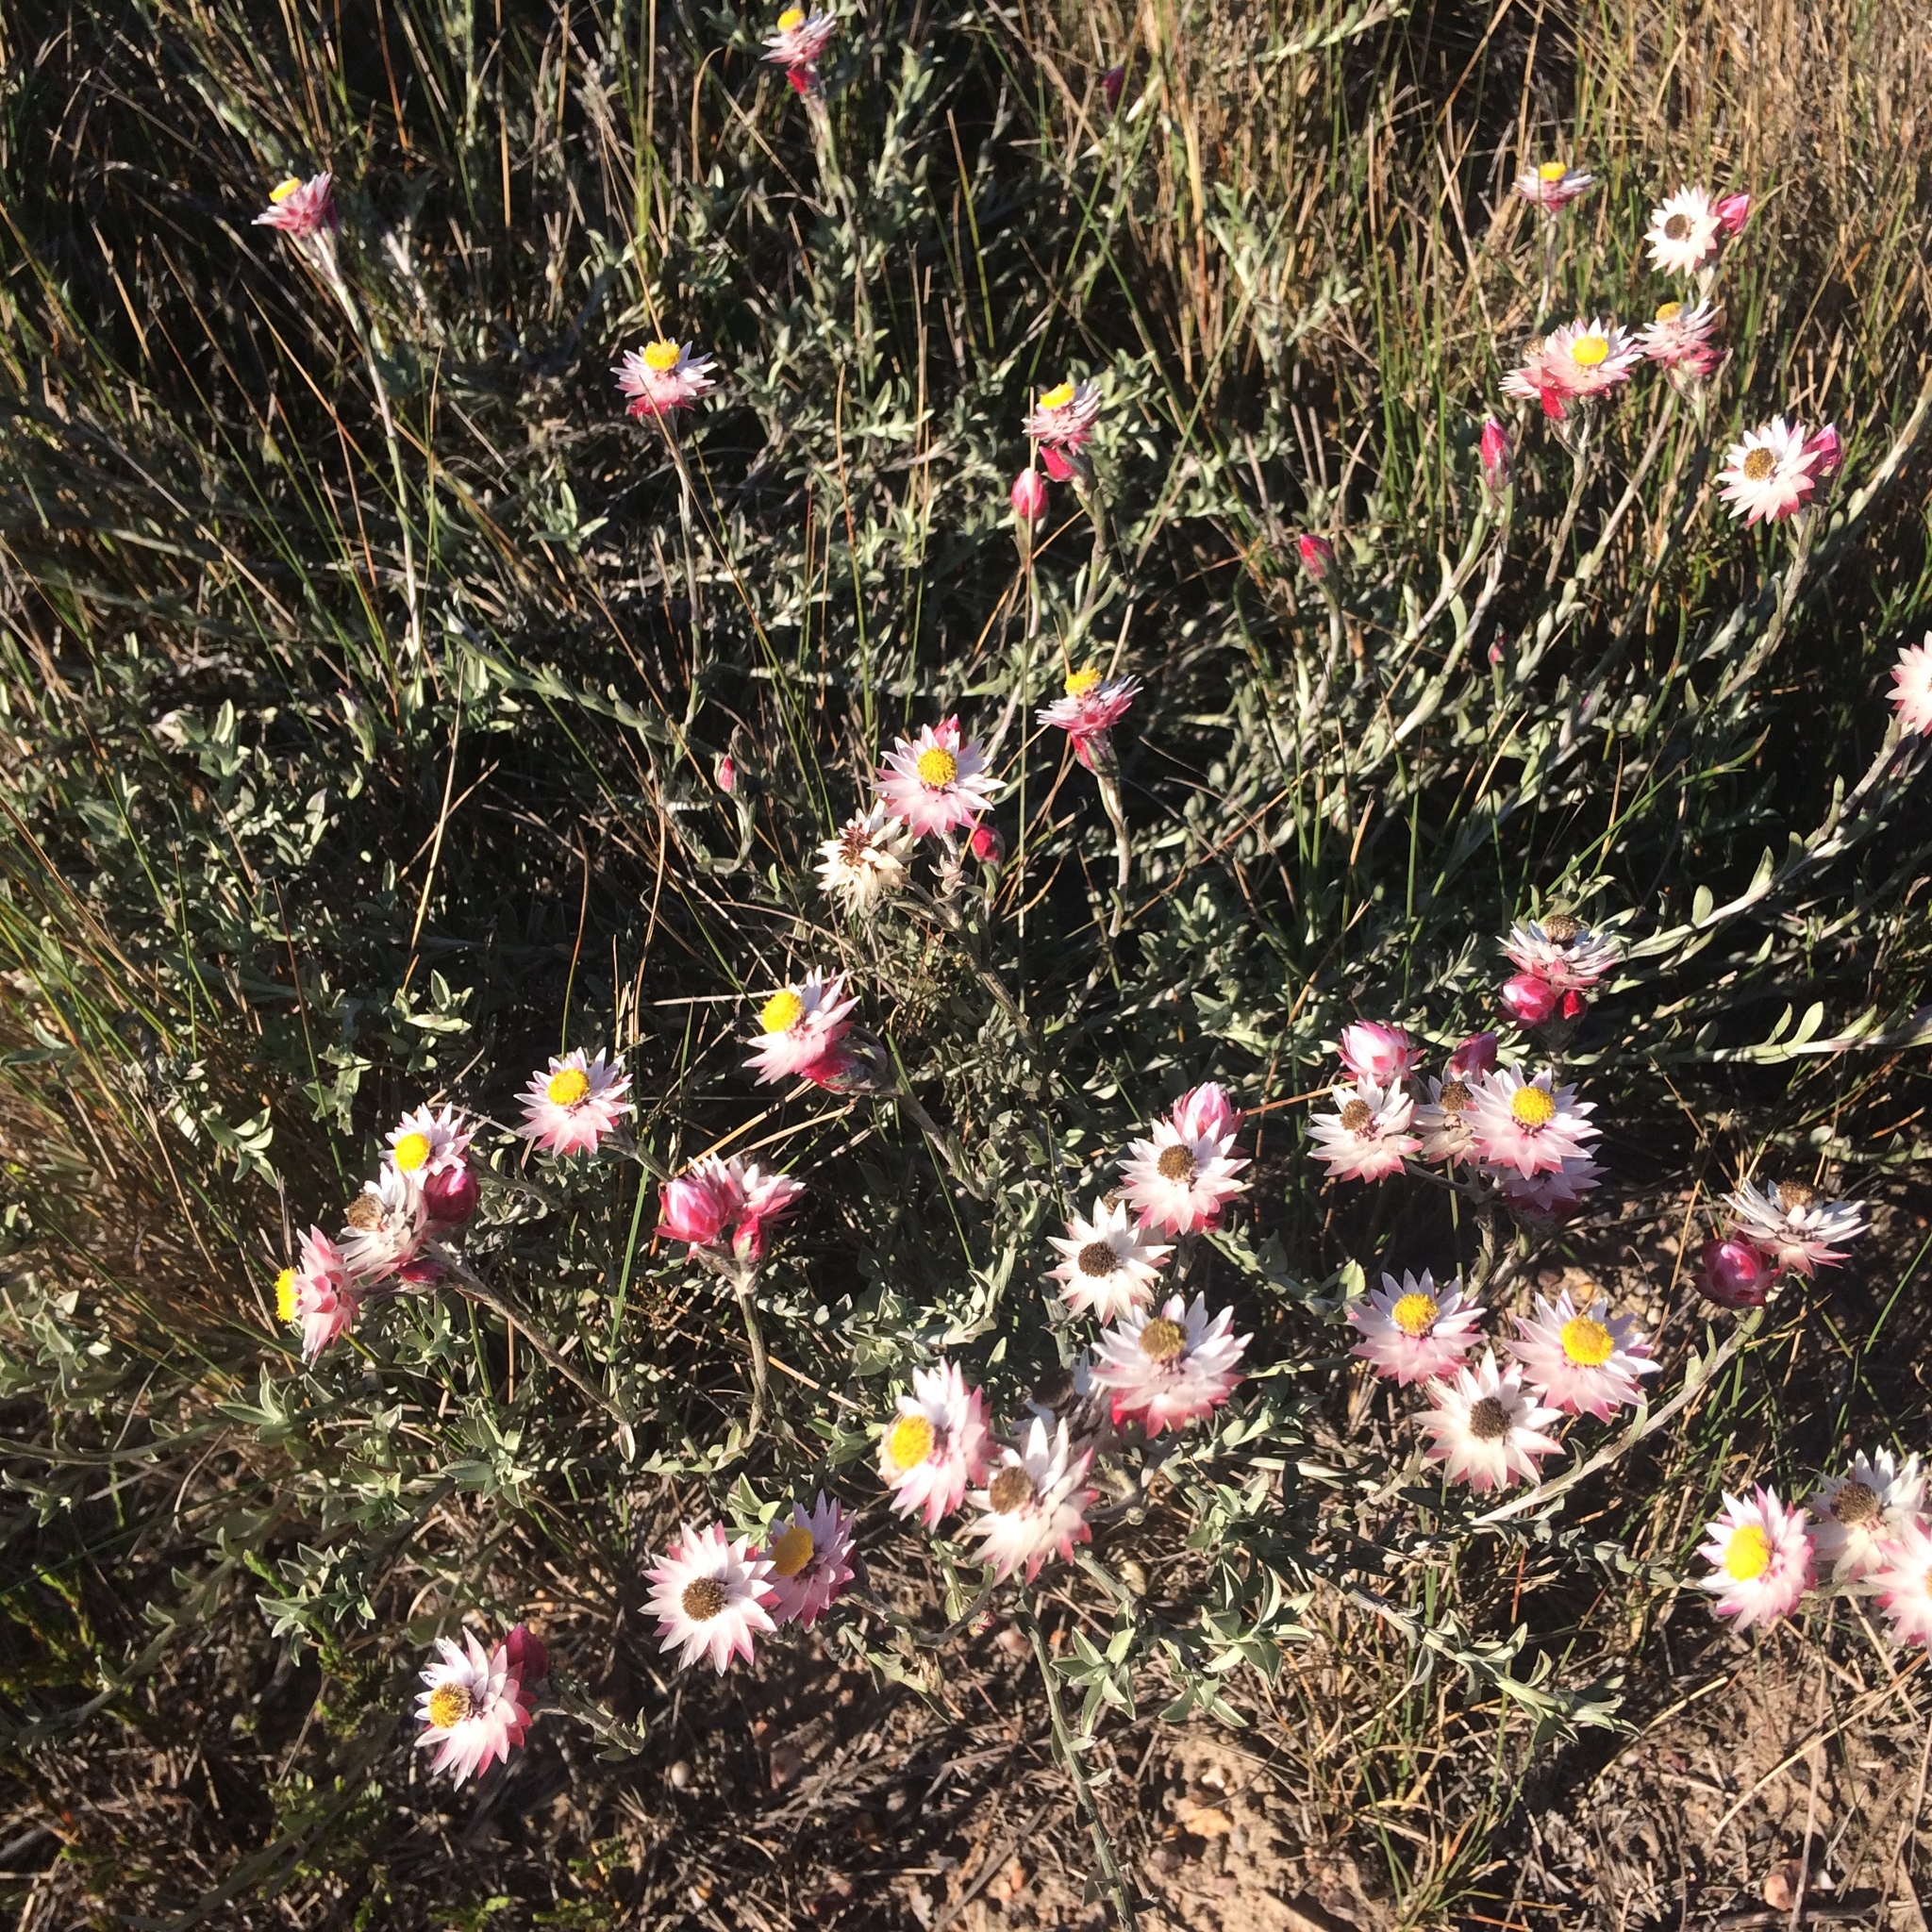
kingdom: Plantae
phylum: Tracheophyta
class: Magnoliopsida
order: Asterales
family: Asteraceae
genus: Achyranthemum
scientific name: Achyranthemum affine
